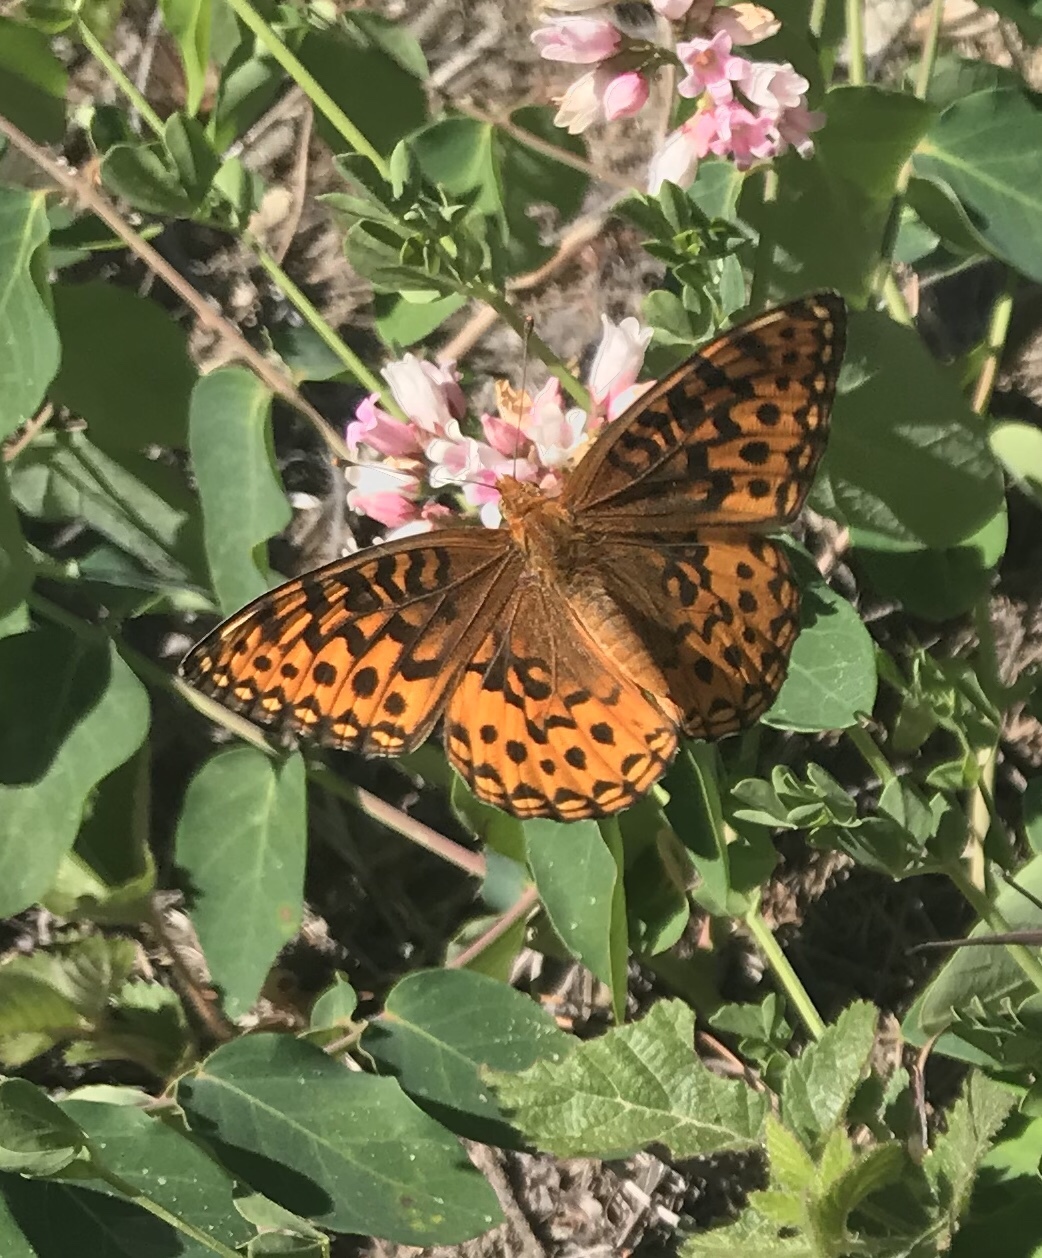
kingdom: Animalia
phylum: Arthropoda
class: Insecta
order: Lepidoptera
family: Nymphalidae
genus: Speyeria
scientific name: Speyeria hydaspe
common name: Hydaspe fritillary
